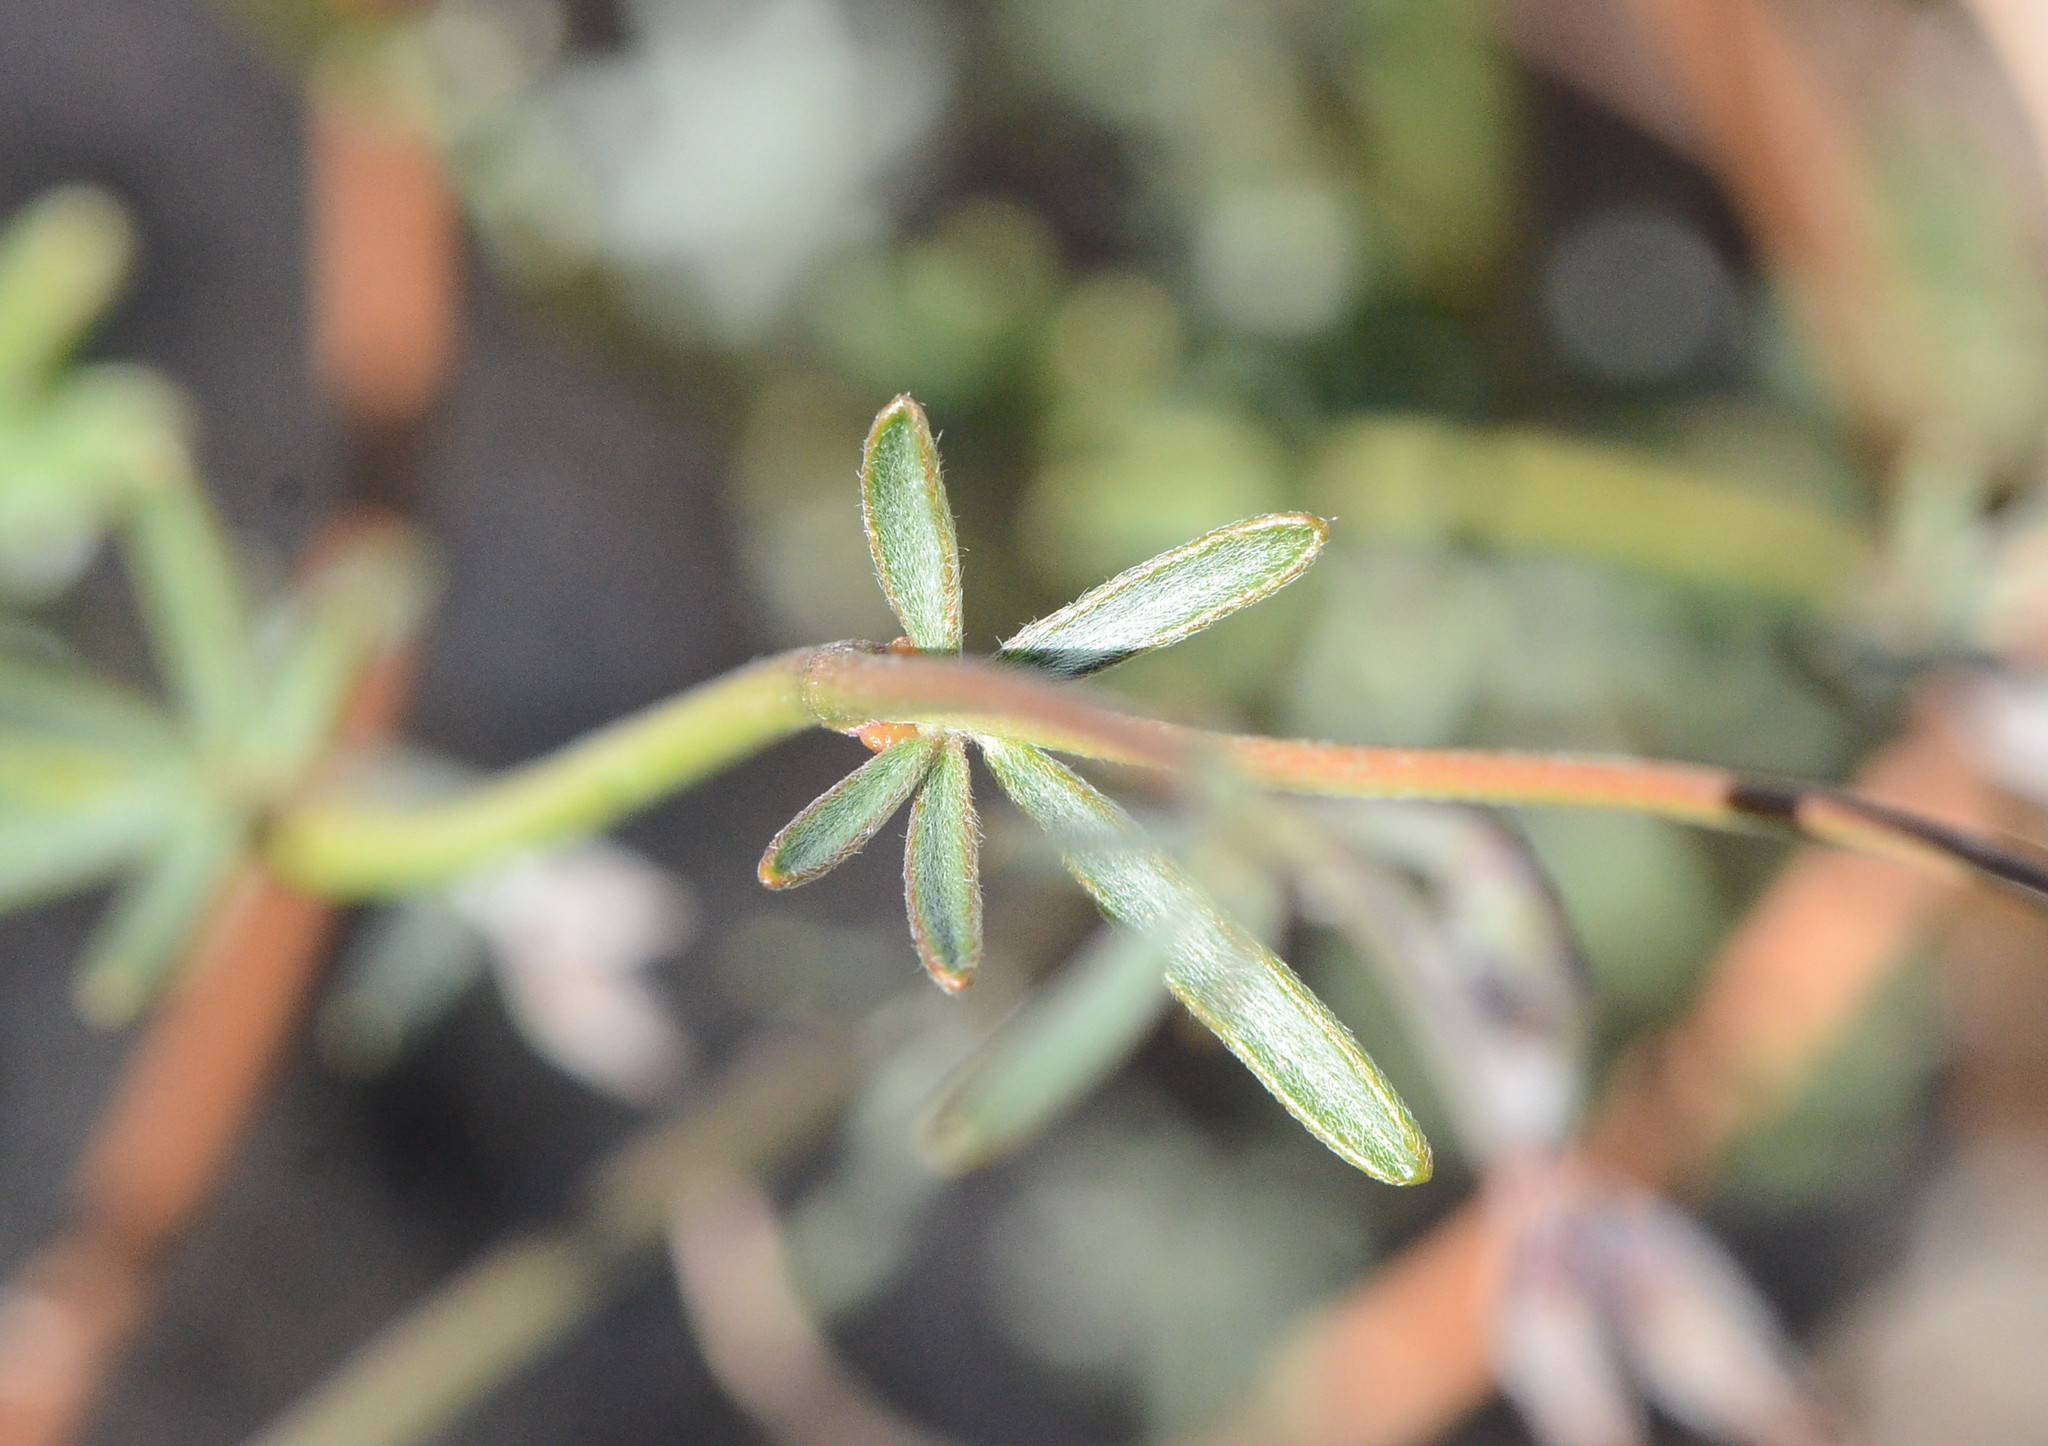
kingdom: Plantae
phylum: Tracheophyta
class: Magnoliopsida
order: Fabales
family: Fabaceae
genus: Acmispon
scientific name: Acmispon rigidus
